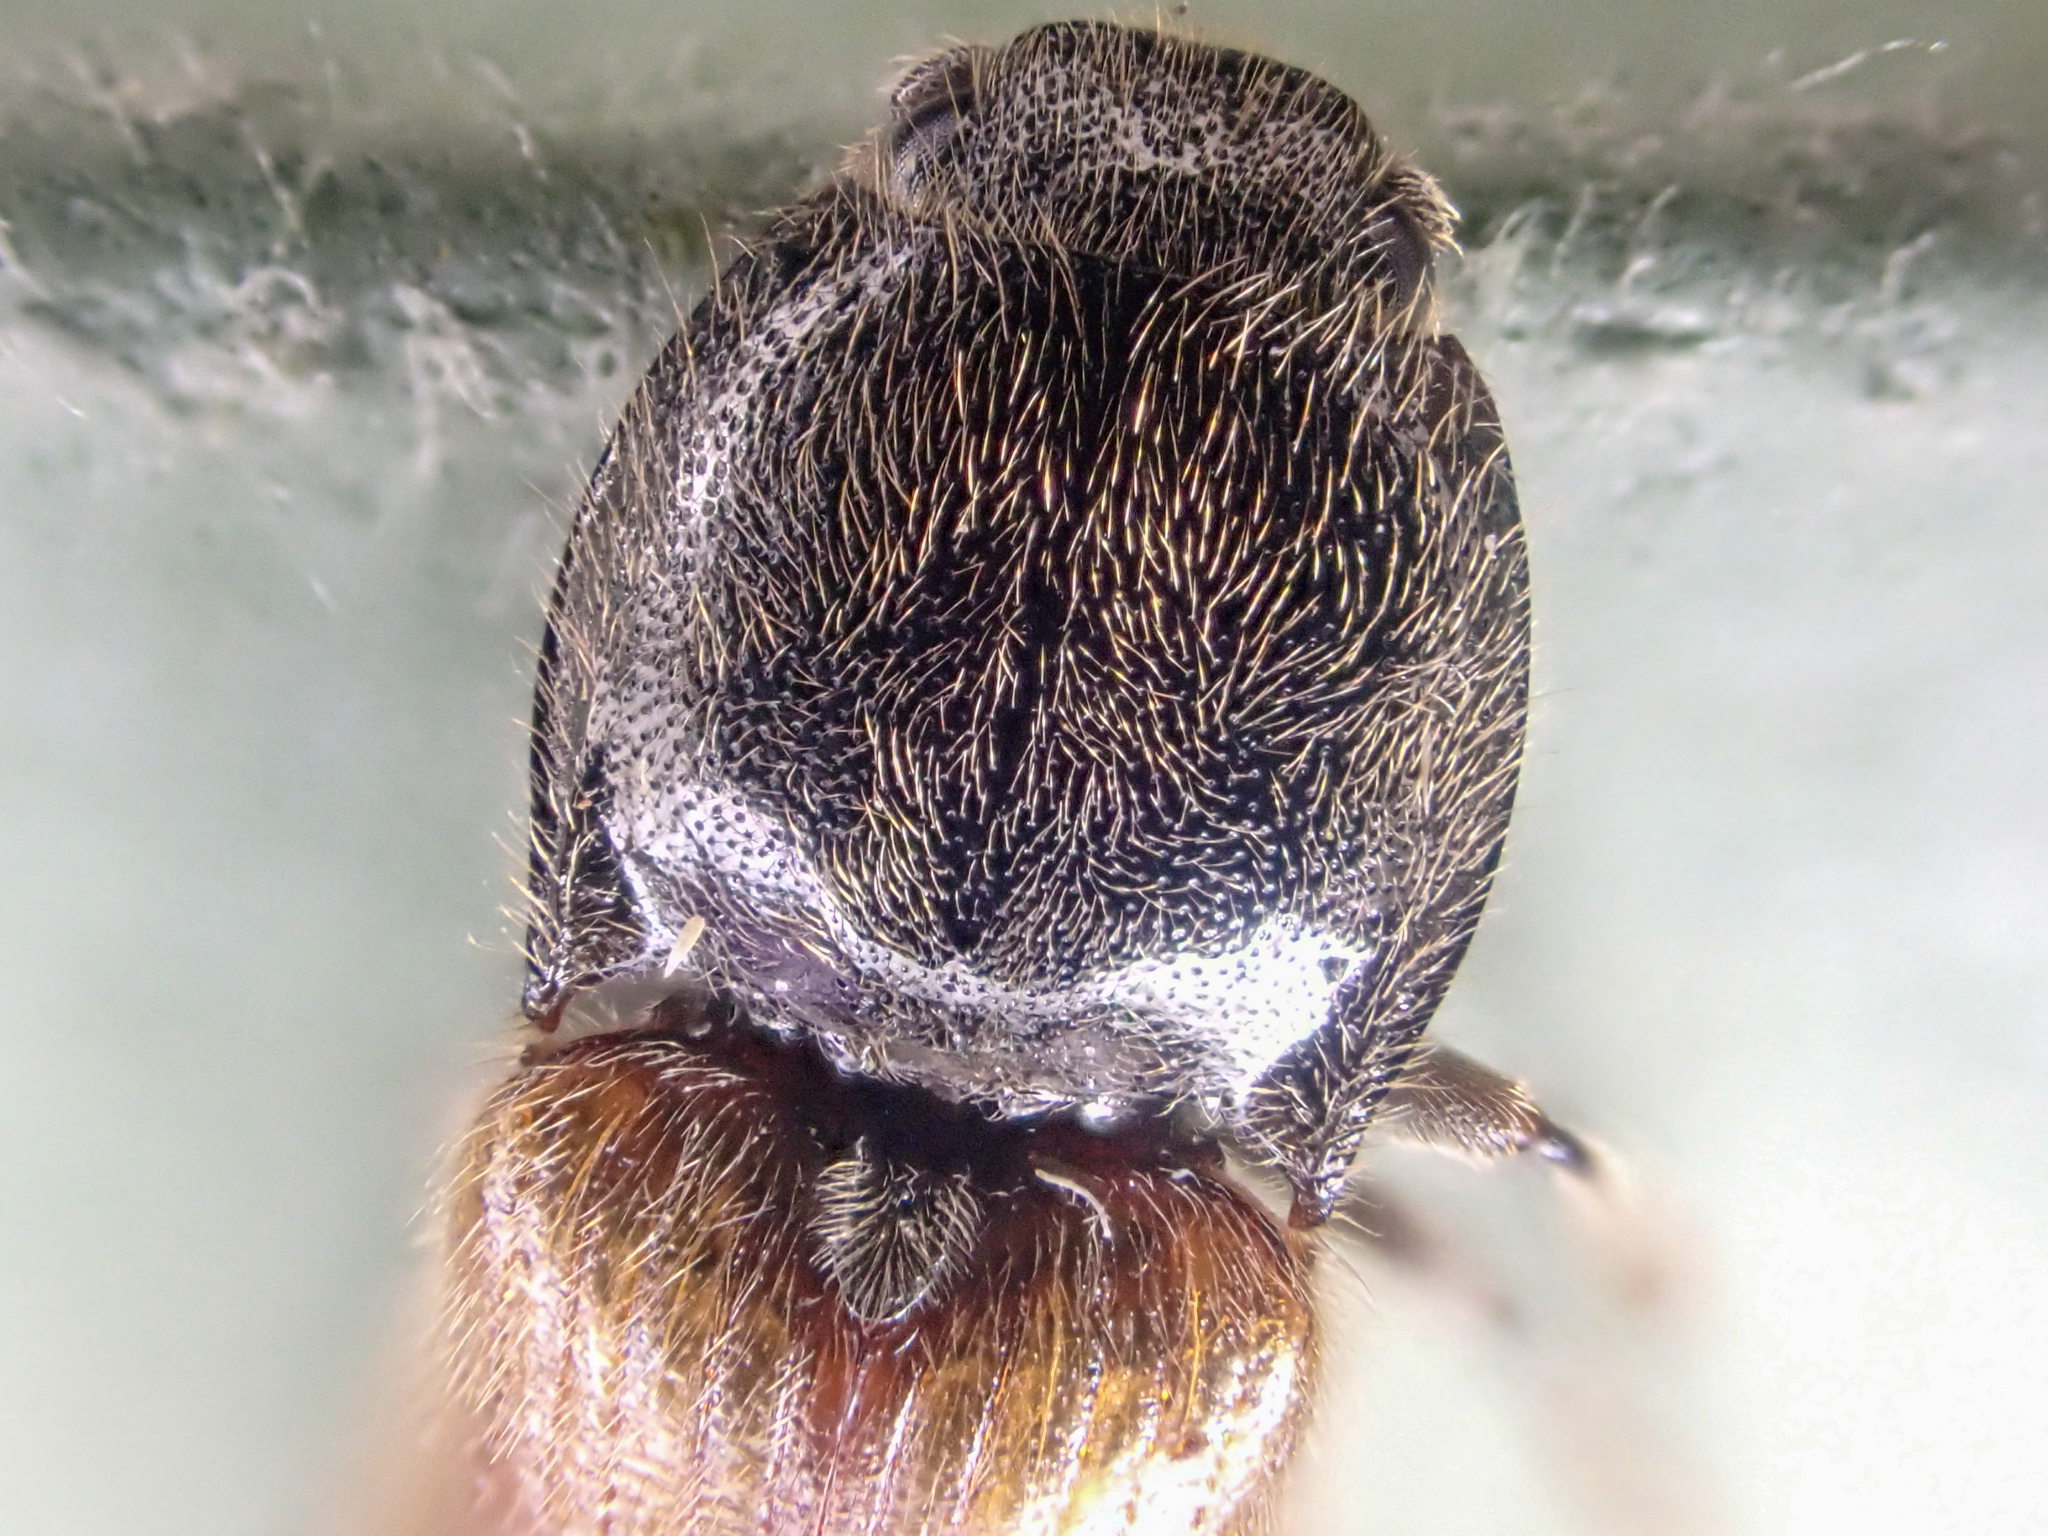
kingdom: Animalia
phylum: Arthropoda
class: Insecta
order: Coleoptera
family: Elateridae
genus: Hemicrepidius
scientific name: Hemicrepidius pallidipennis
